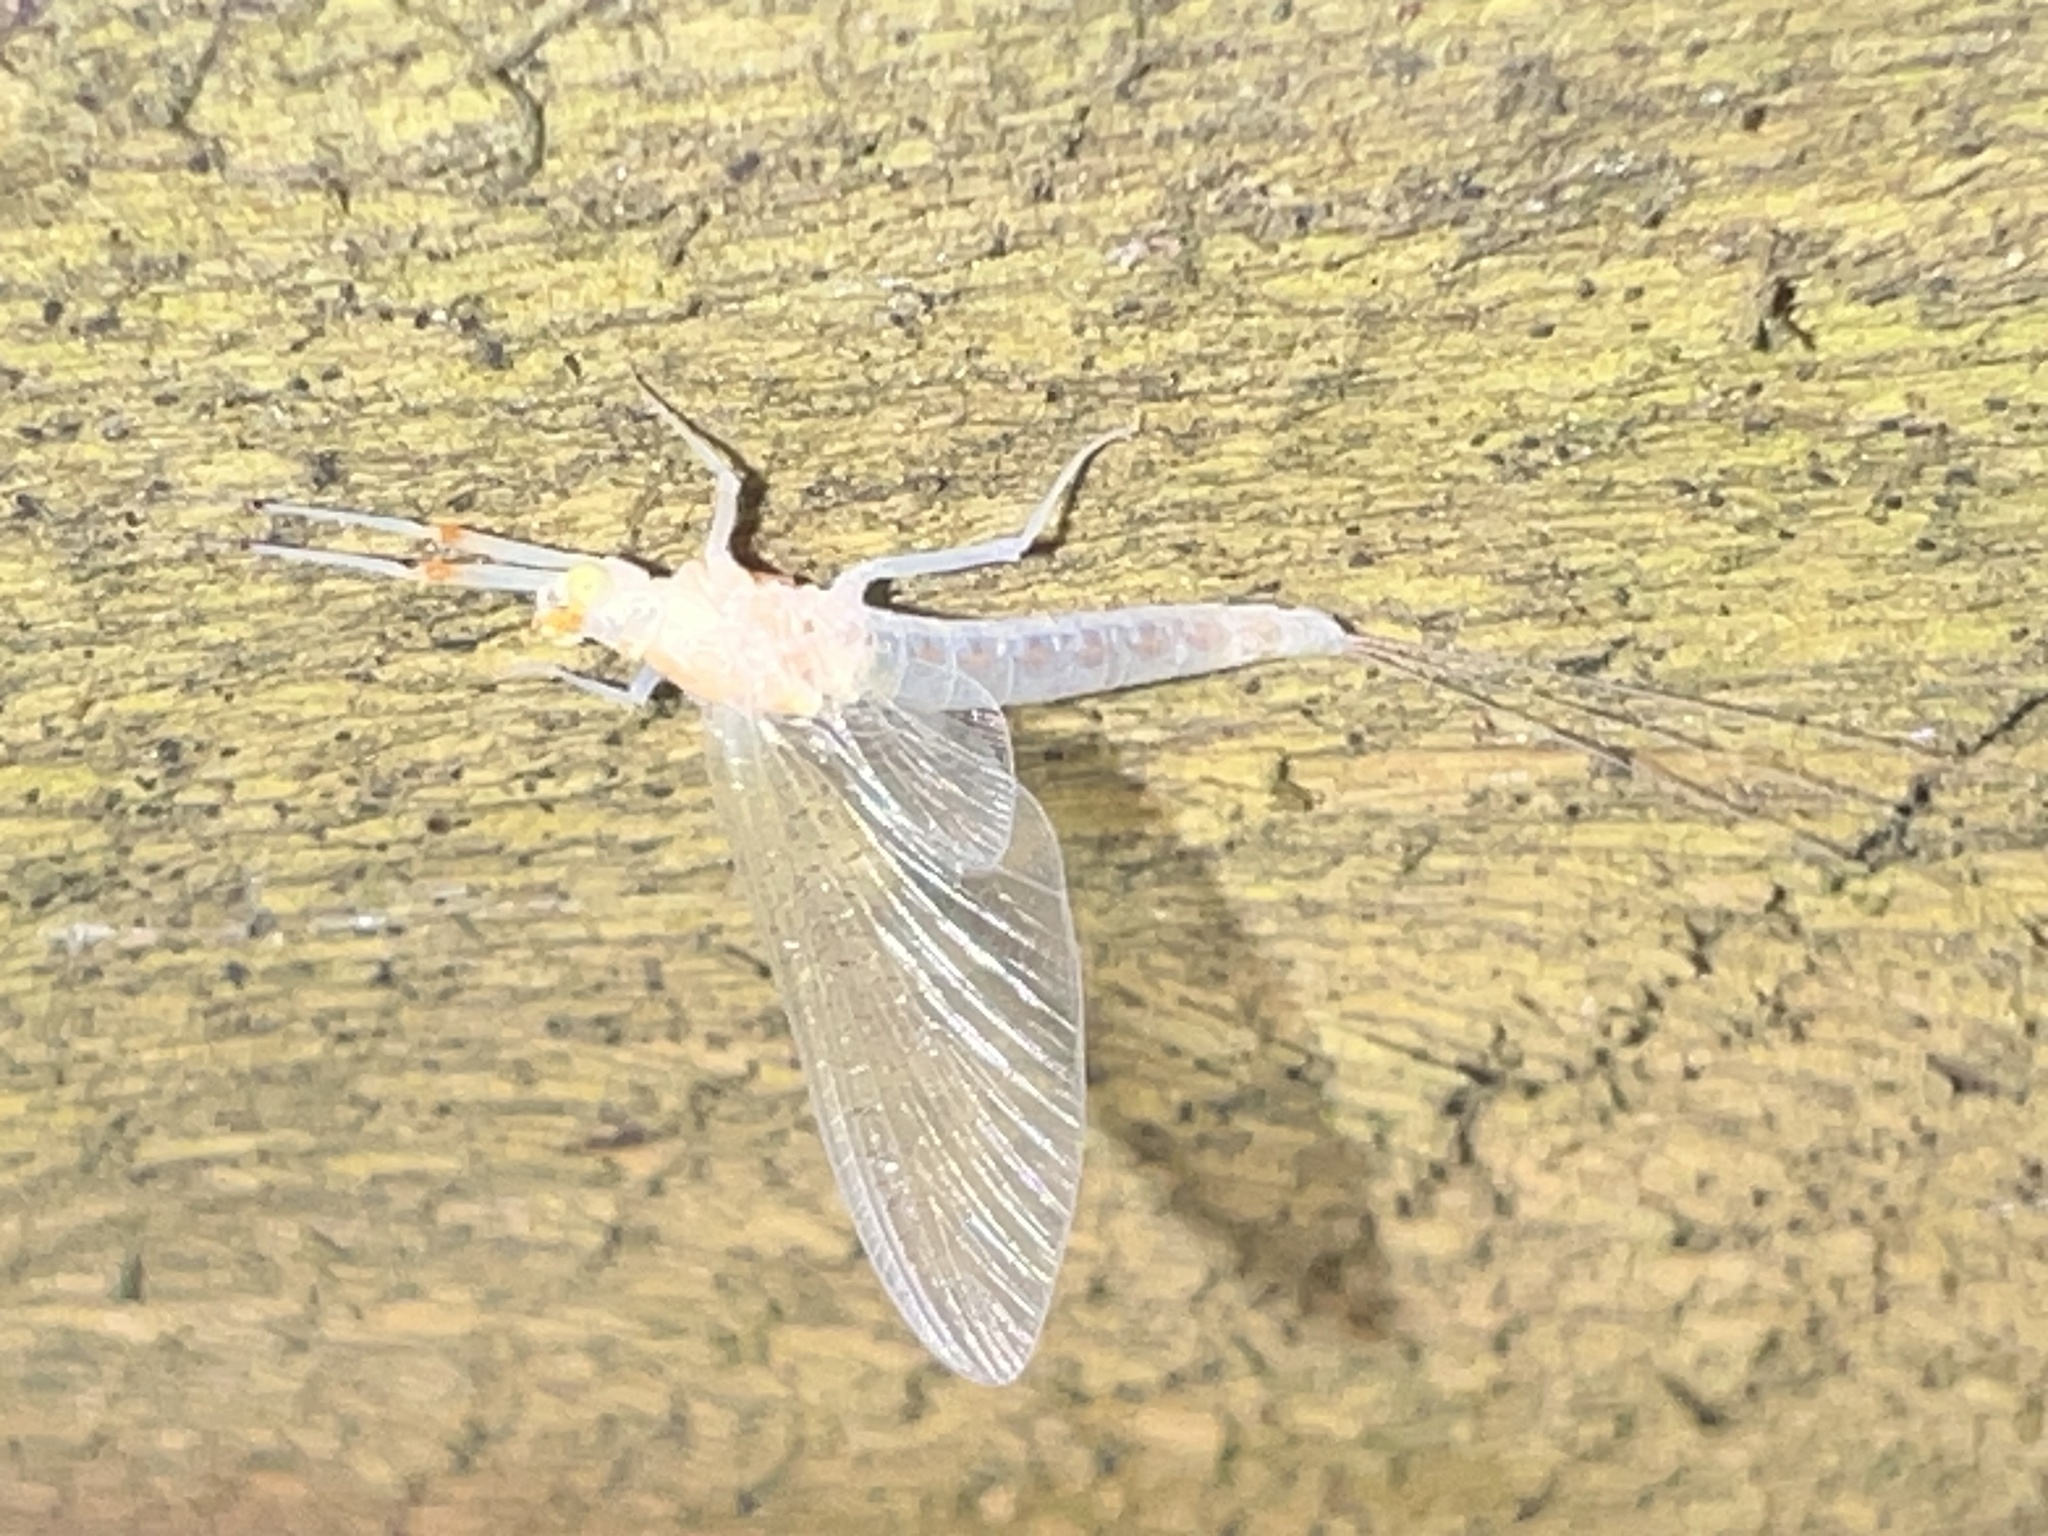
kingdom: Animalia
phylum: Arthropoda
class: Insecta
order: Ephemeroptera
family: Potamanthidae
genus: Anthopotamus
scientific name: Anthopotamus verticis
